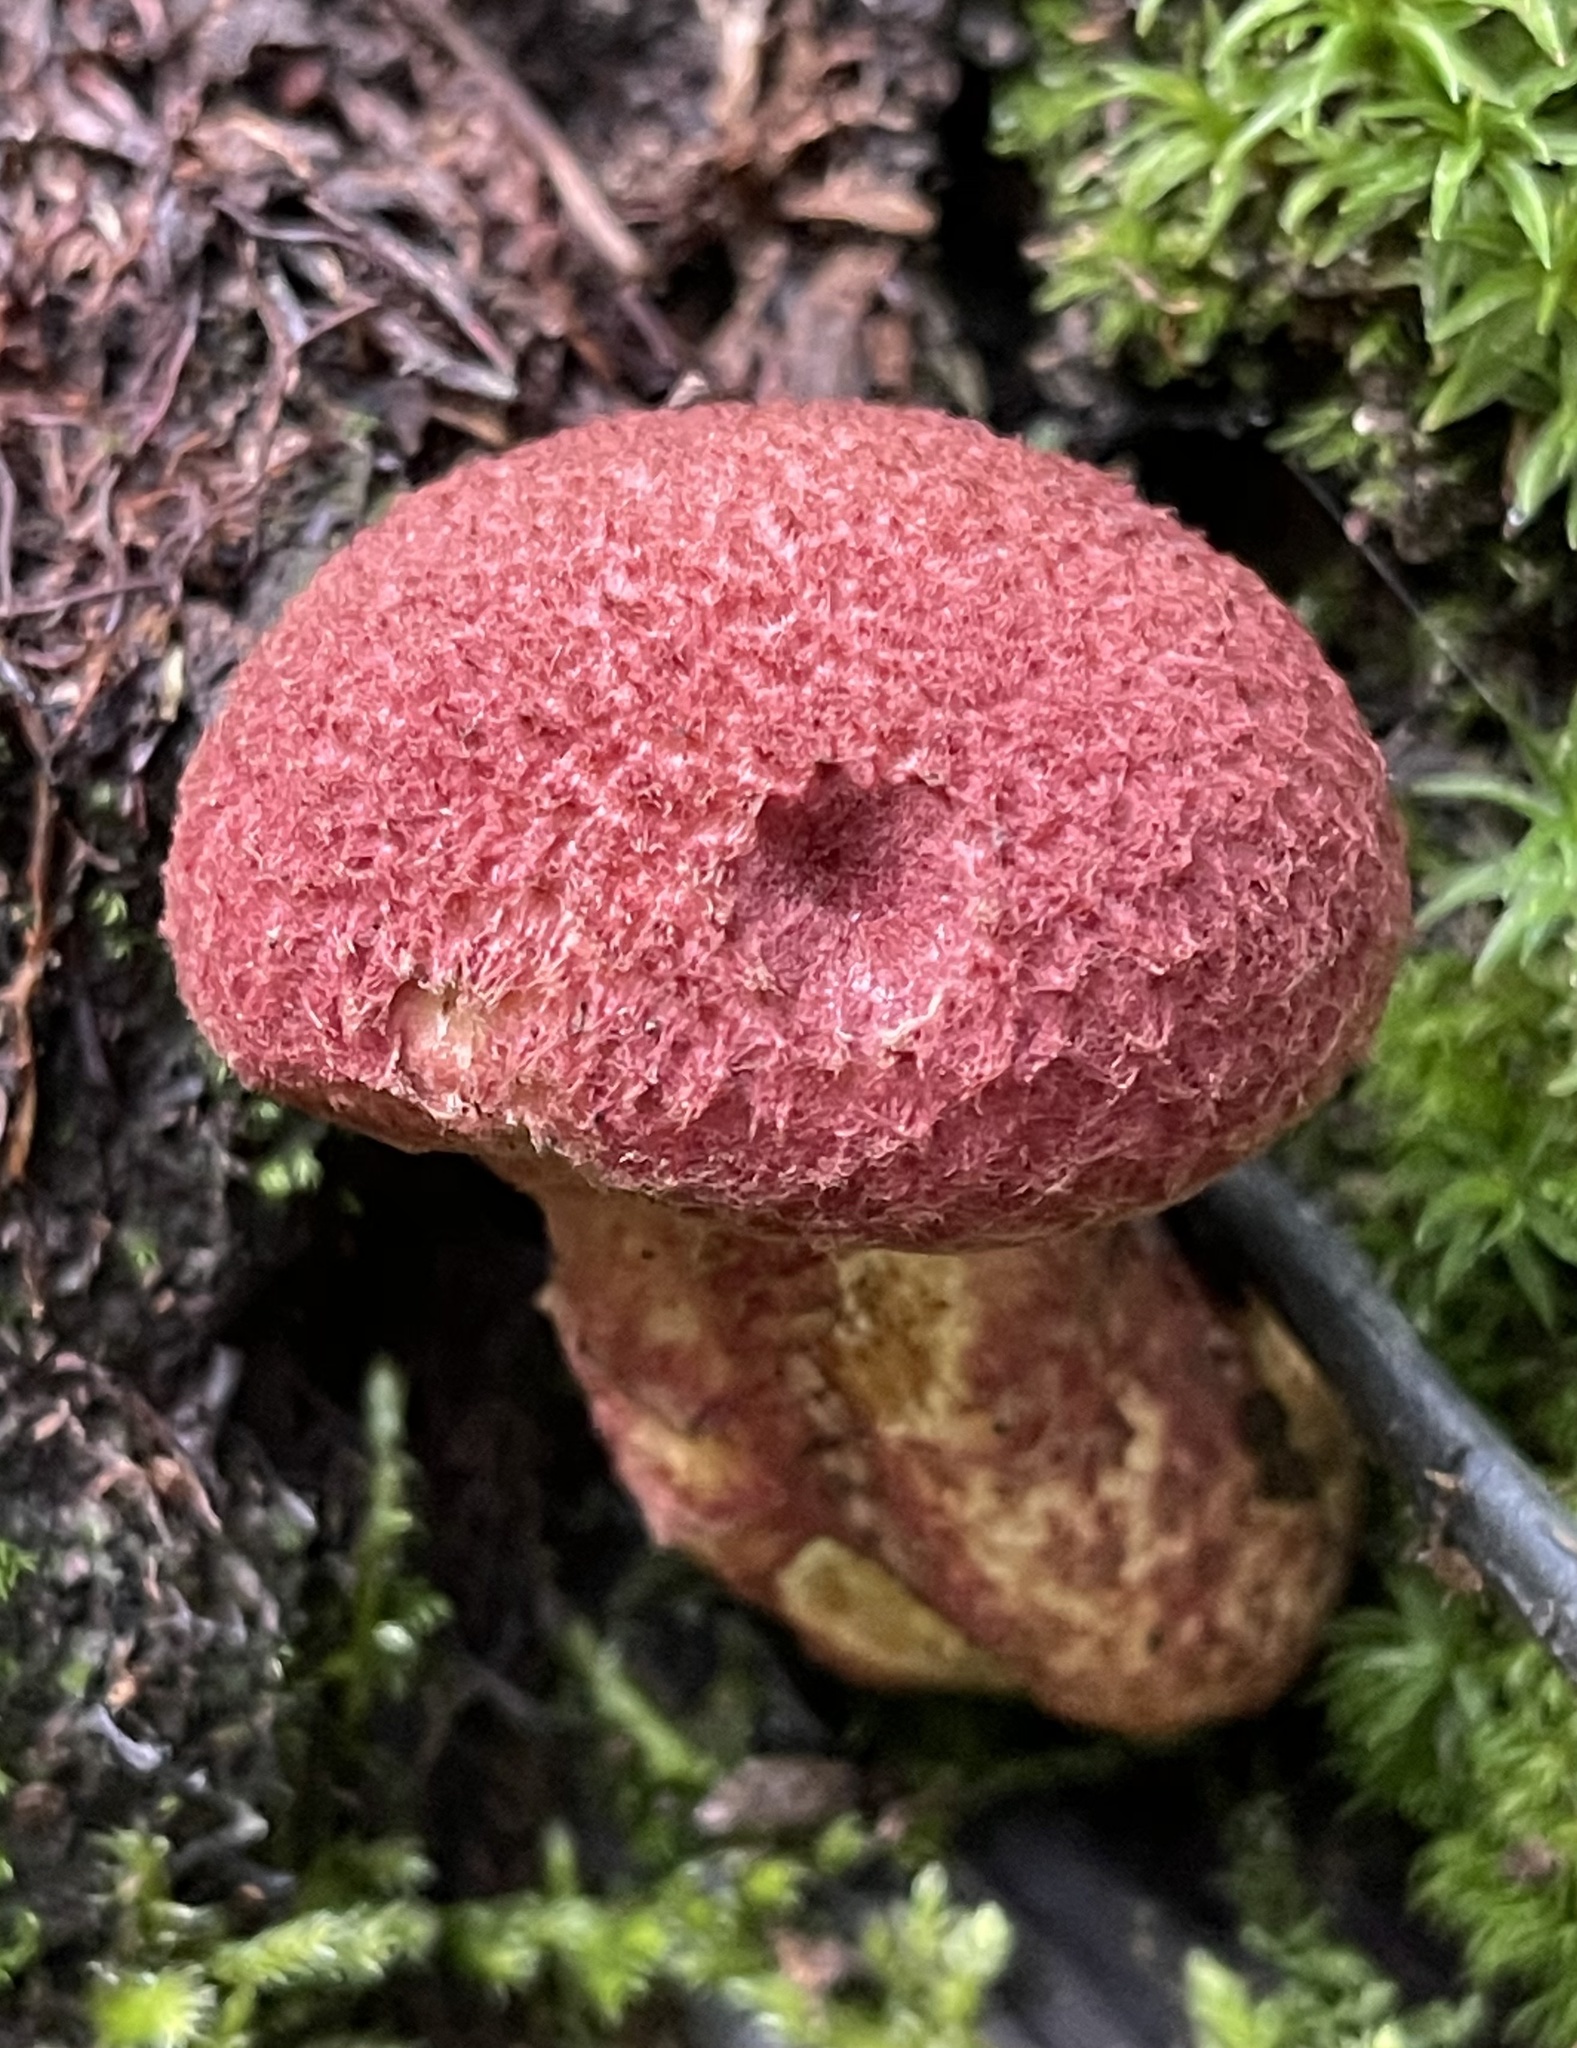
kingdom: Fungi
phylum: Basidiomycota
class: Agaricomycetes
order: Boletales
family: Suillaceae
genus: Suillus
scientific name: Suillus spraguei
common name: Painted suillus
